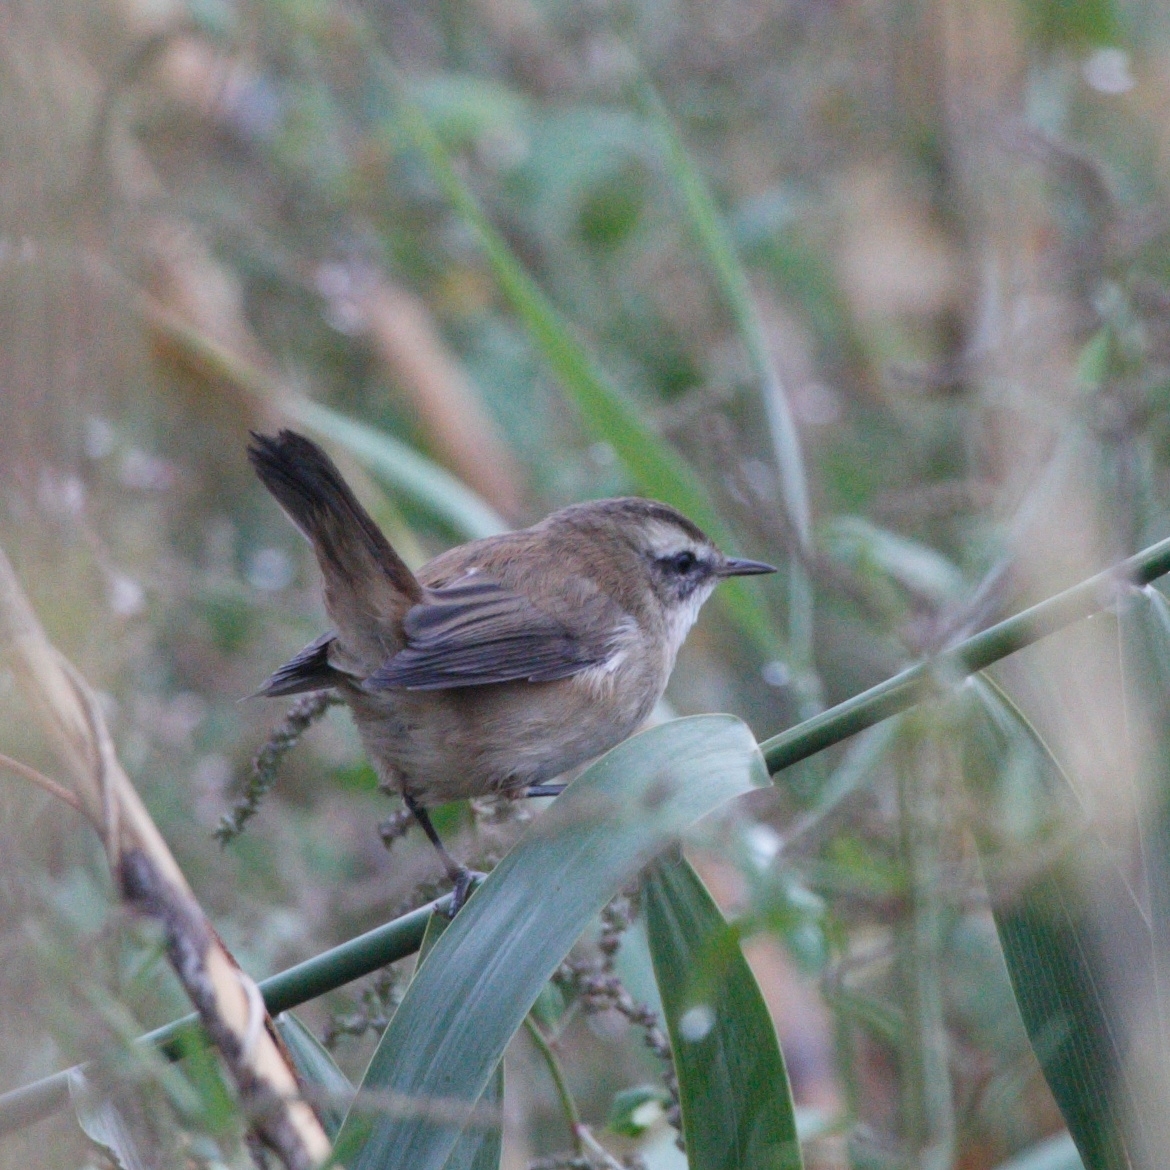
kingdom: Animalia
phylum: Chordata
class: Aves
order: Passeriformes
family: Acrocephalidae
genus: Acrocephalus
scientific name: Acrocephalus melanopogon
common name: Moustached warbler
